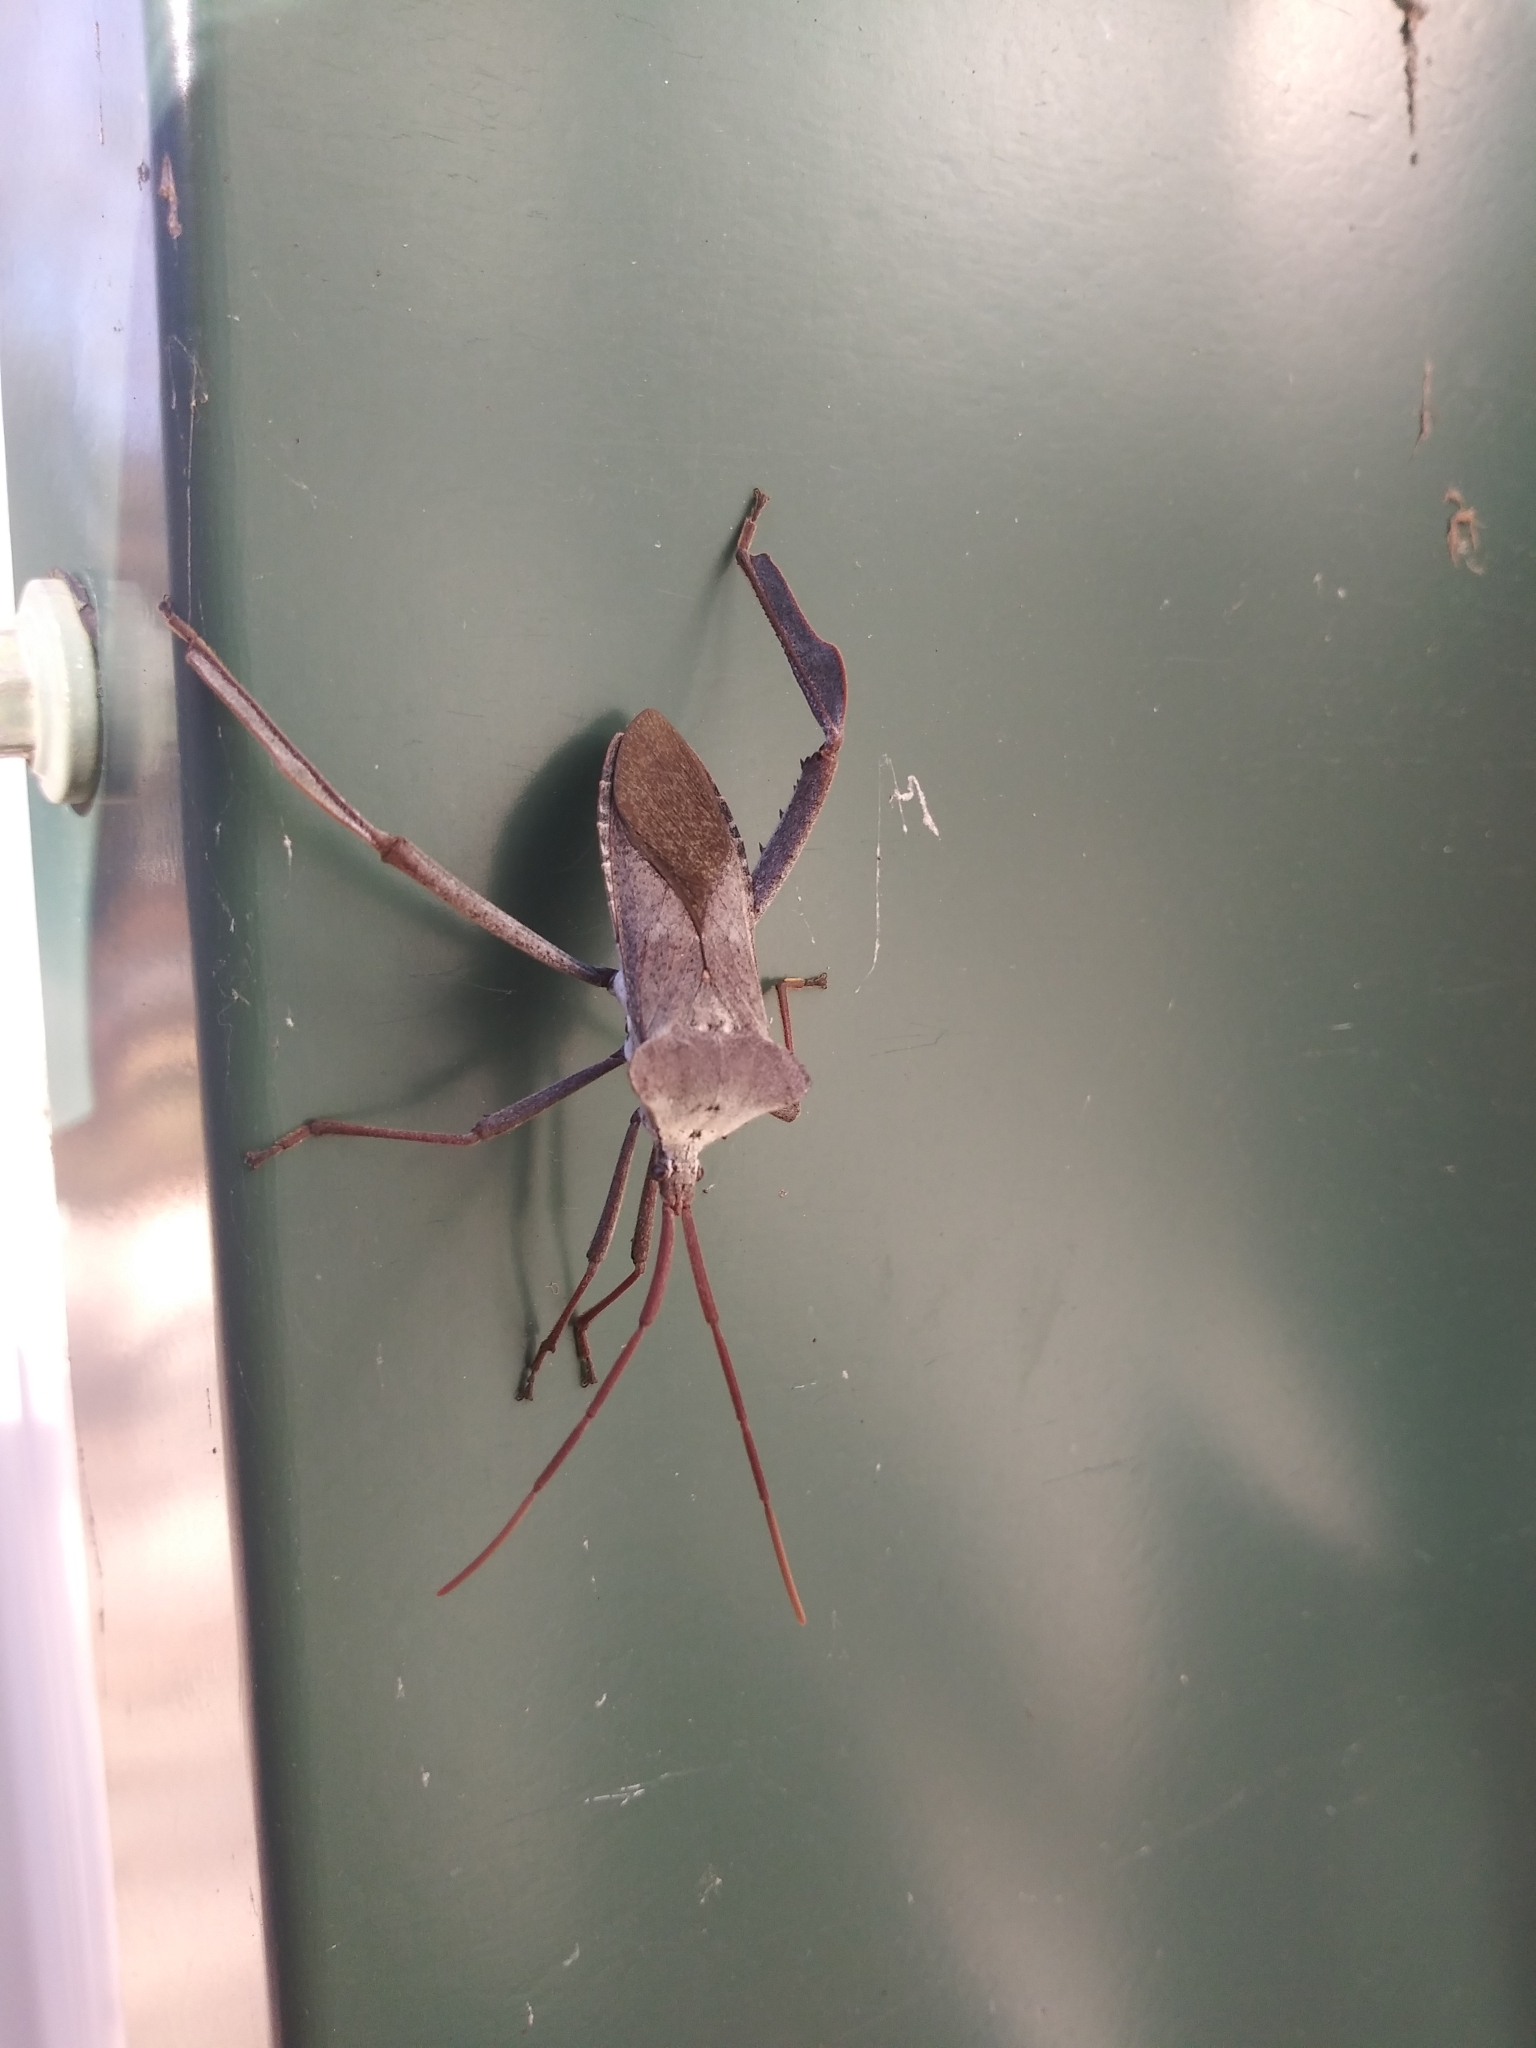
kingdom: Animalia
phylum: Arthropoda
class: Insecta
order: Hemiptera
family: Coreidae
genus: Acanthocephala
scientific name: Acanthocephala declivis
